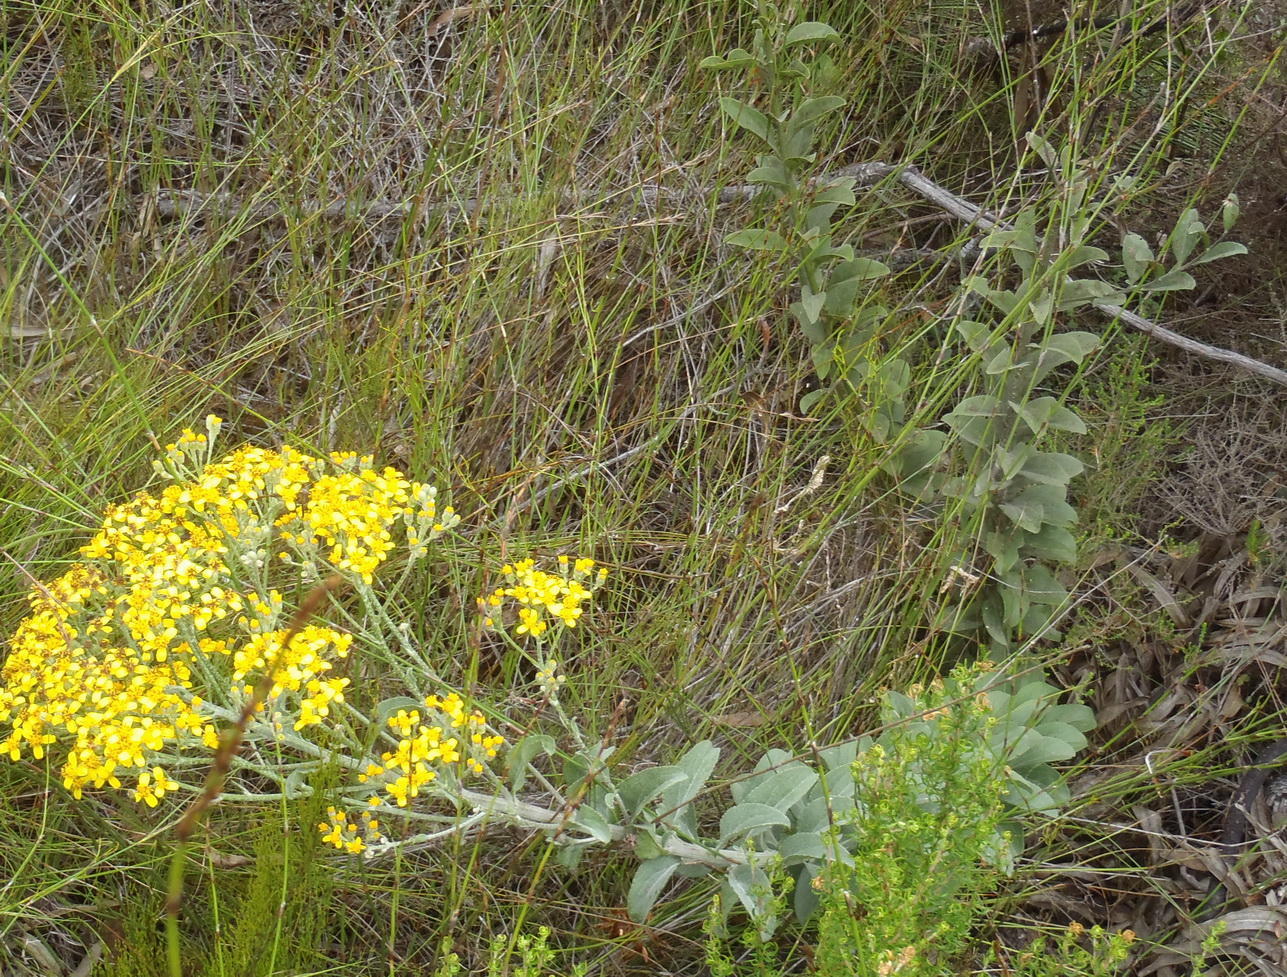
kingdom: Plantae
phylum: Tracheophyta
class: Magnoliopsida
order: Asterales
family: Asteraceae
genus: Senecio
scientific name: Senecio crenatus
